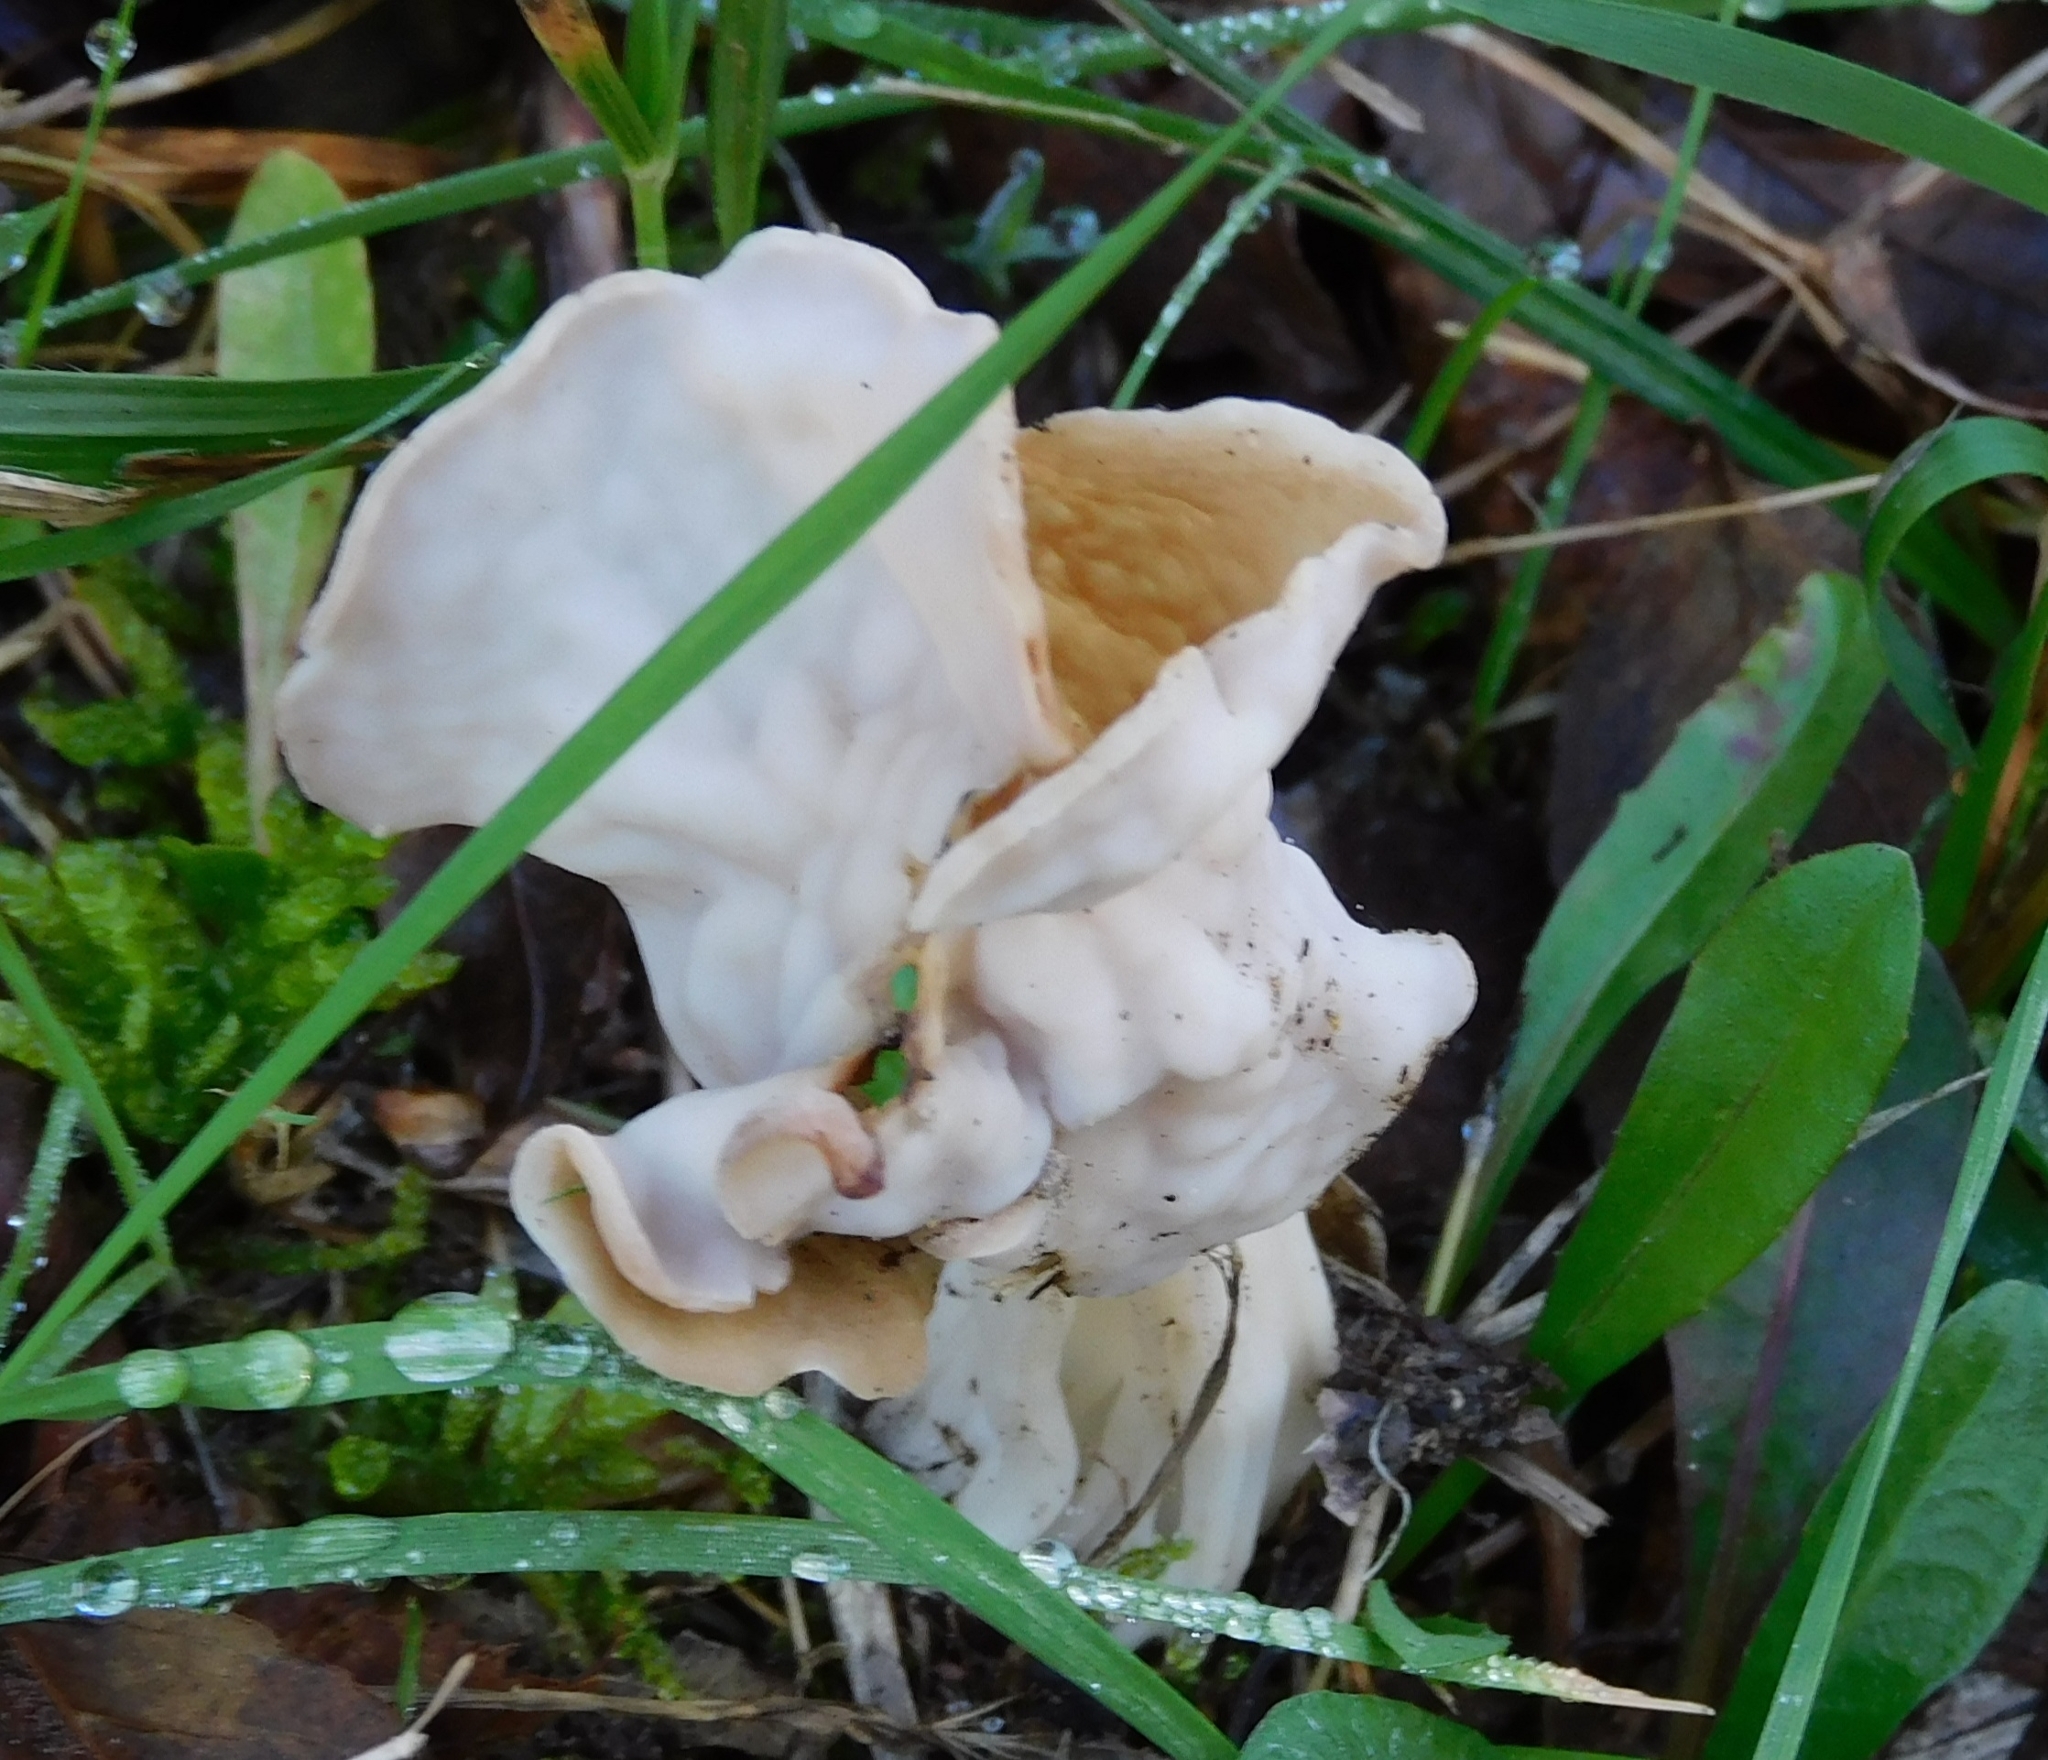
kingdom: Fungi
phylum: Ascomycota
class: Pezizomycetes
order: Pezizales
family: Helvellaceae
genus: Helvella
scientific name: Helvella crispa
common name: White saddle
